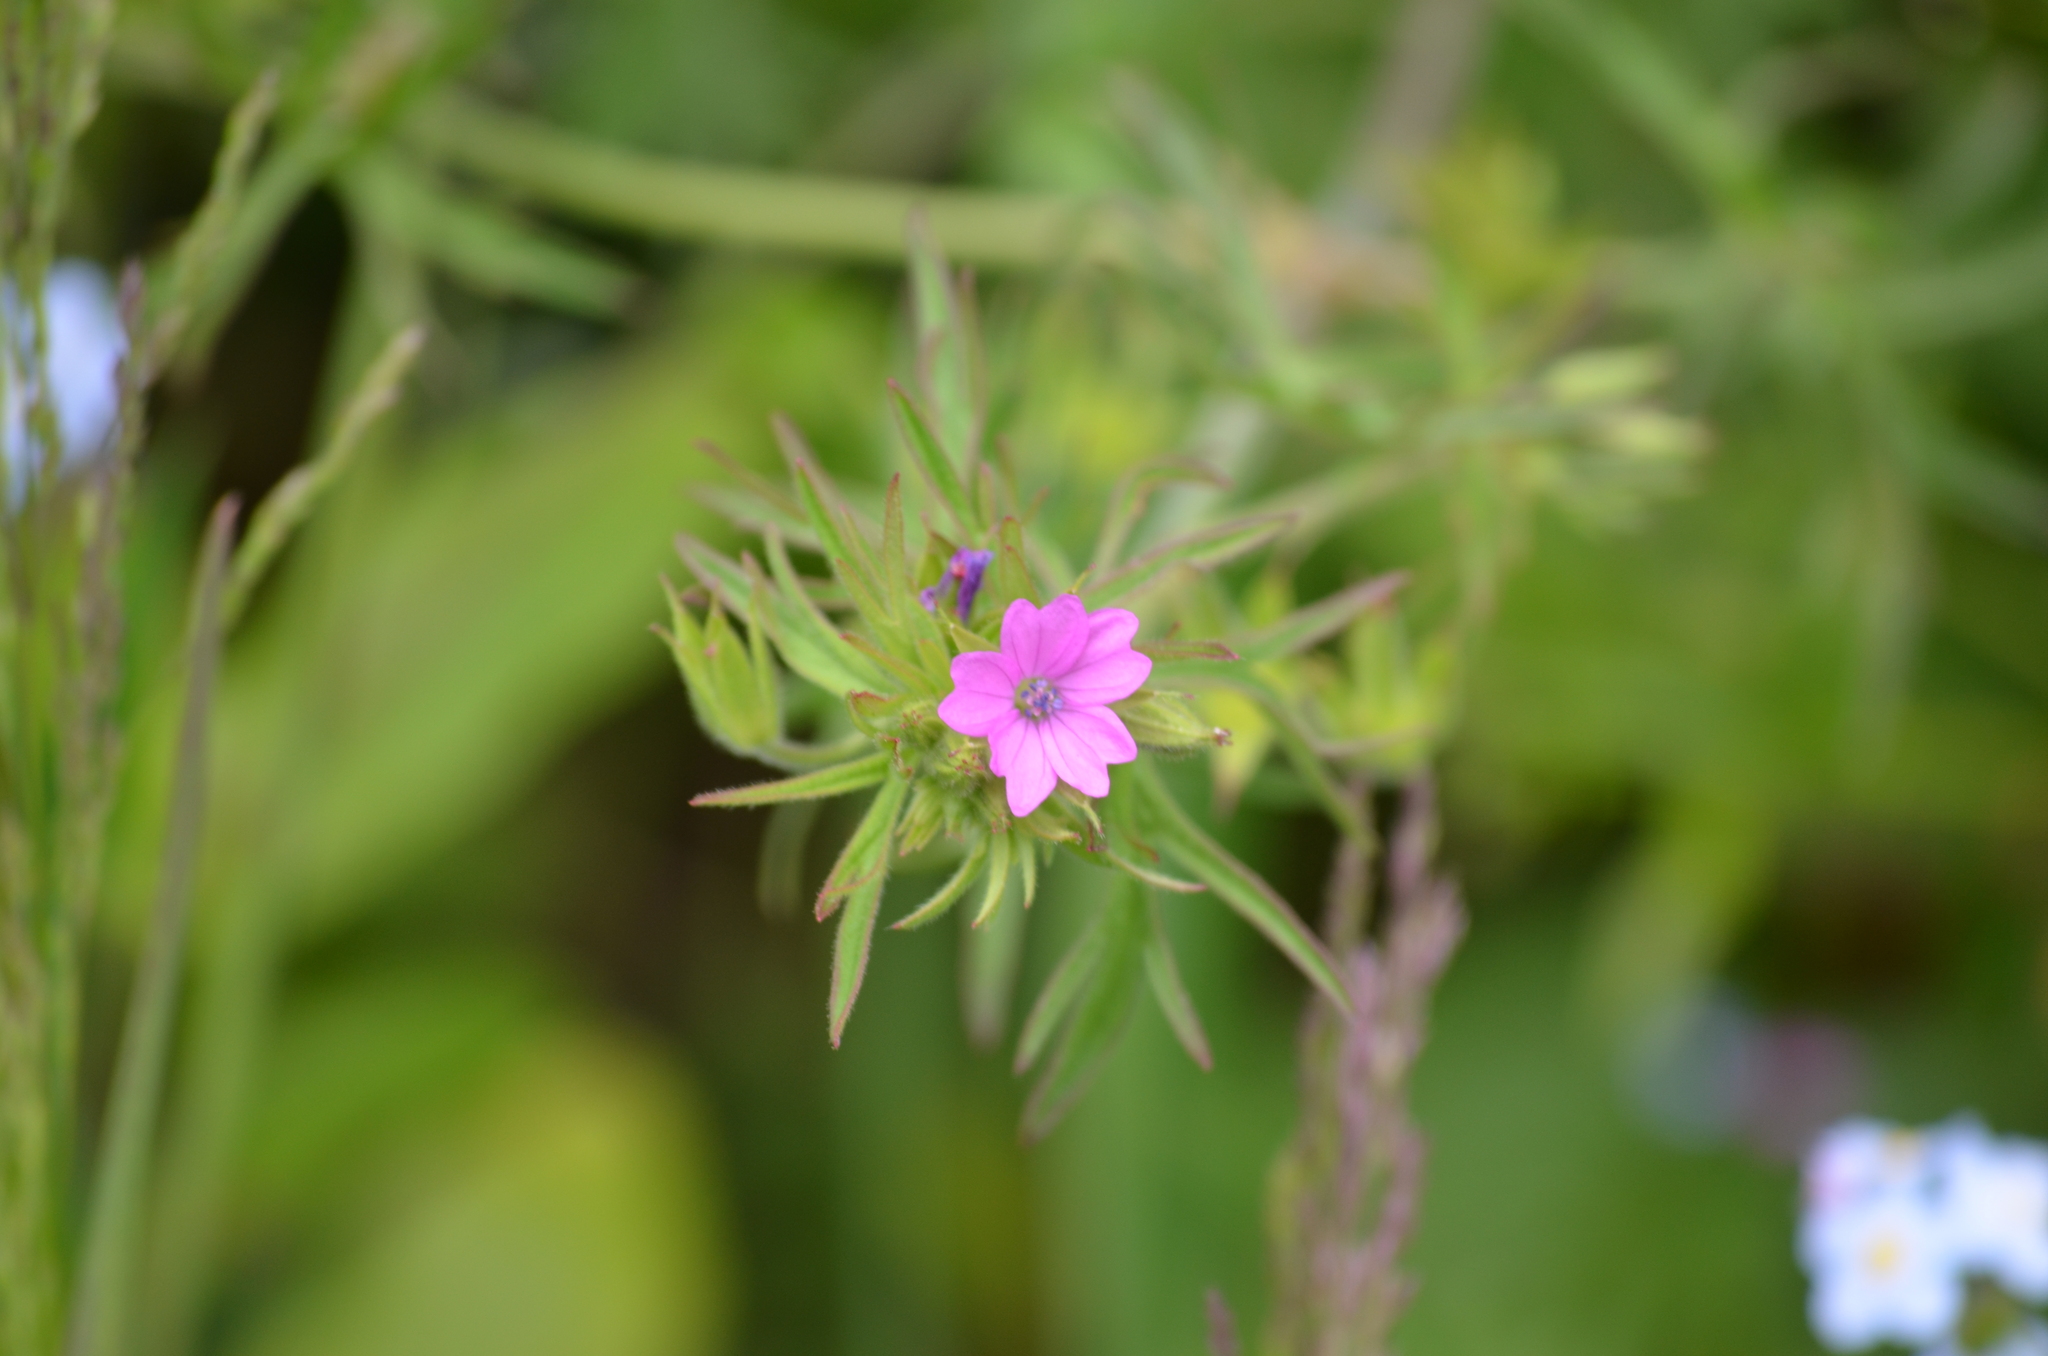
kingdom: Plantae
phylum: Tracheophyta
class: Magnoliopsida
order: Geraniales
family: Geraniaceae
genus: Geranium
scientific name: Geranium dissectum
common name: Cut-leaved crane's-bill
